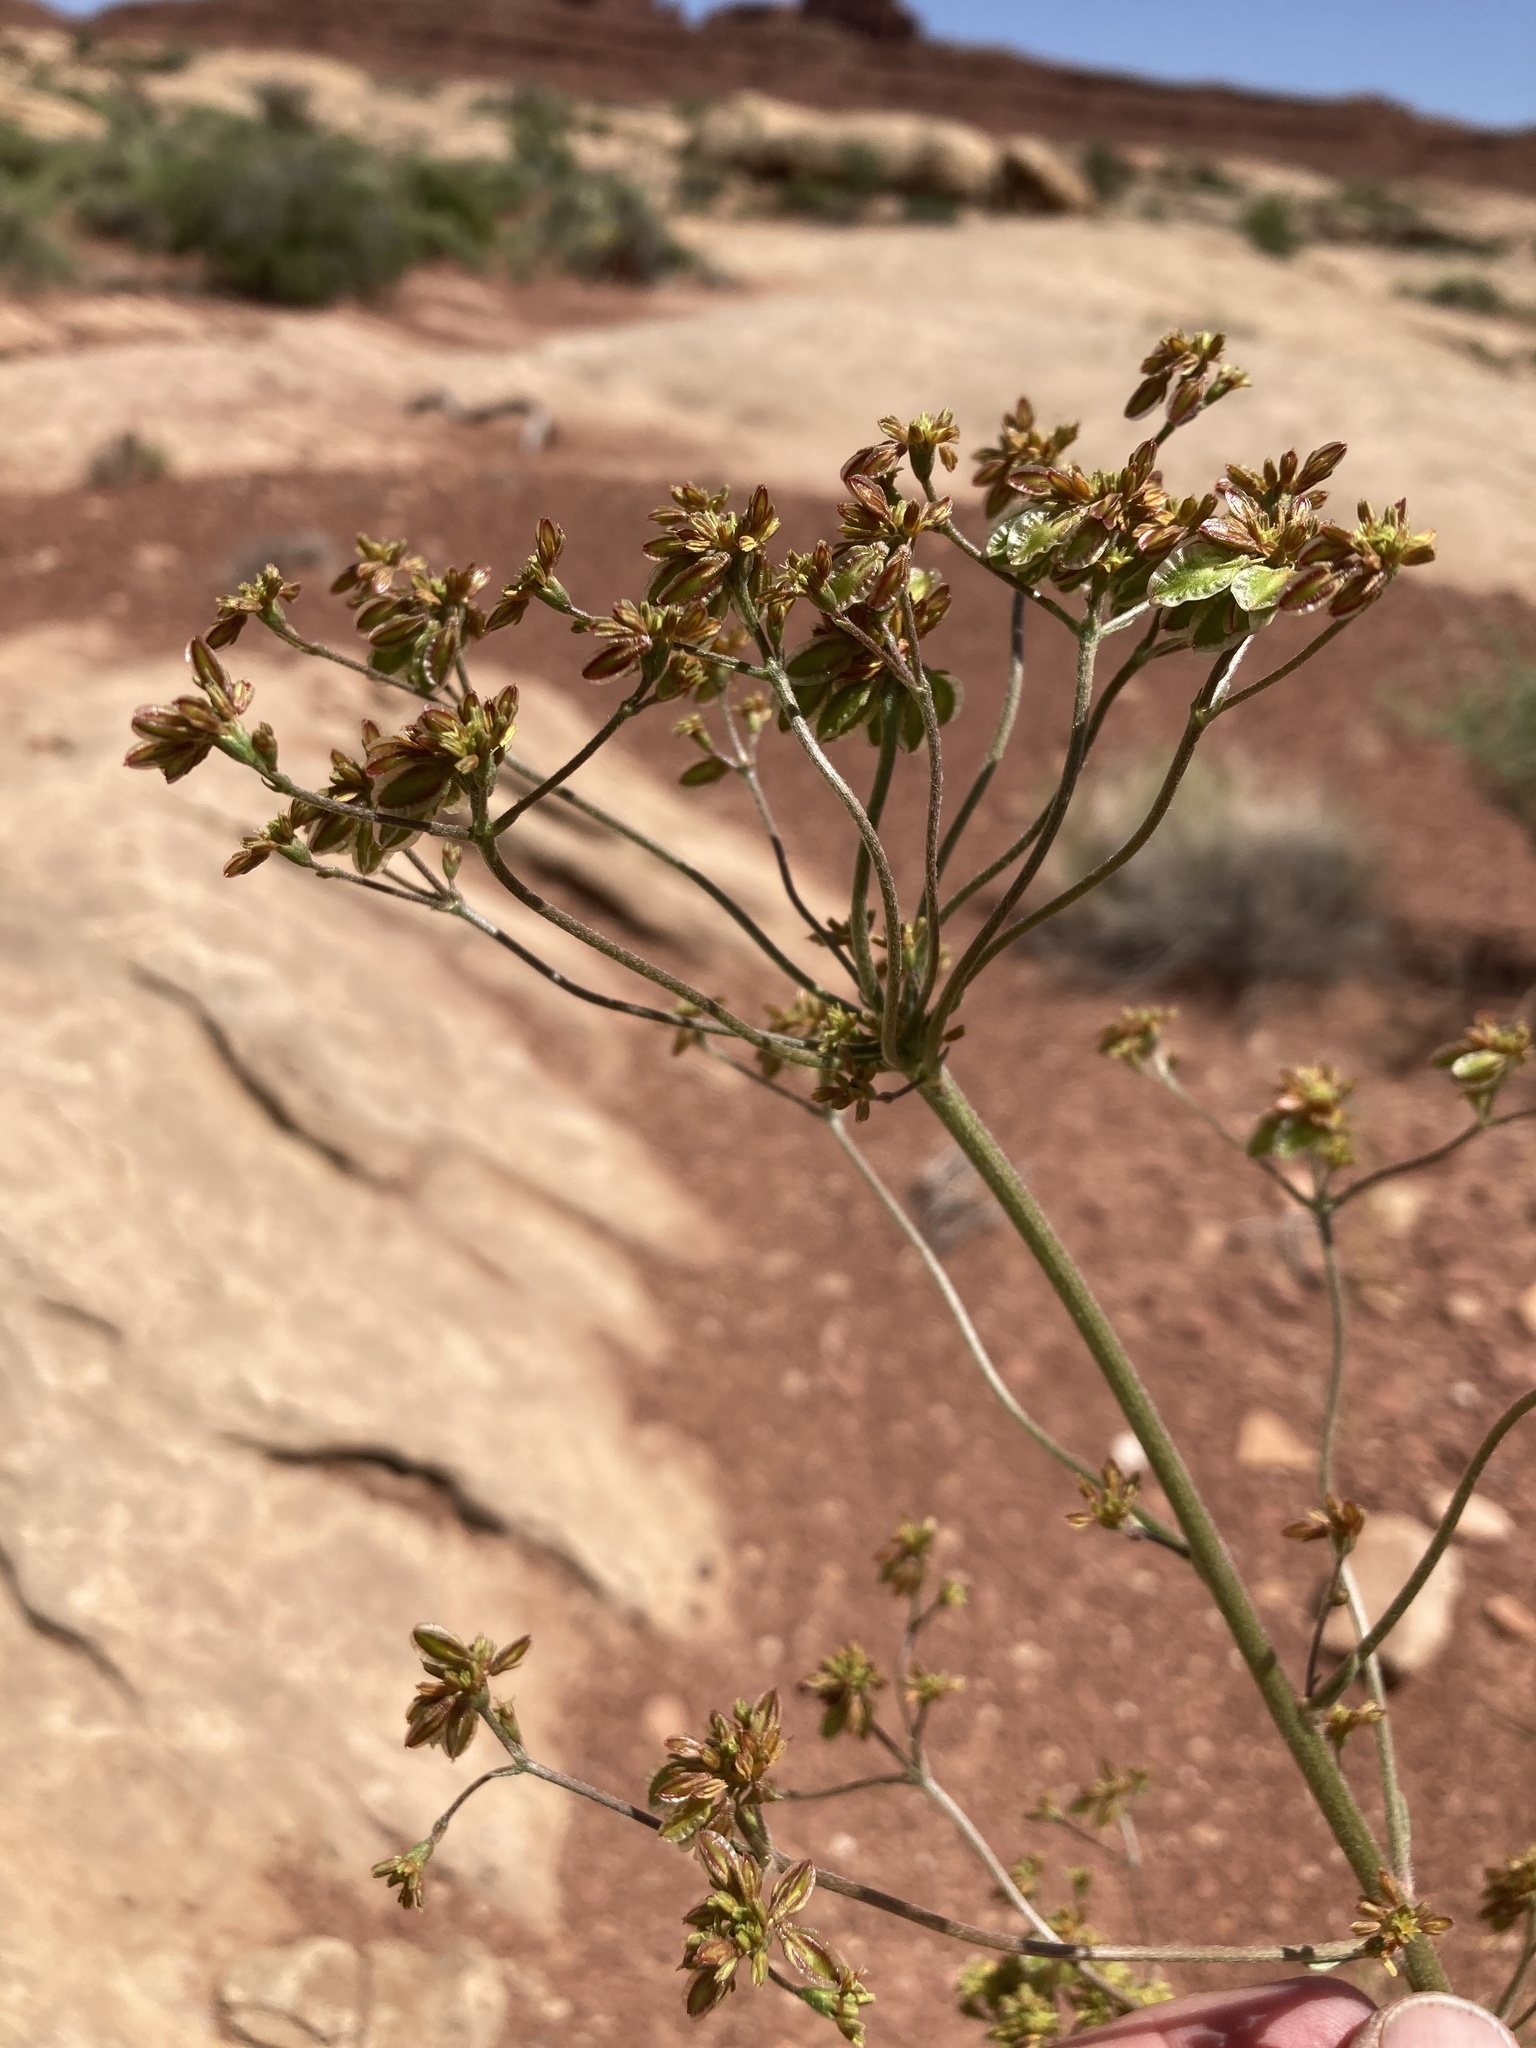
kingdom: Plantae
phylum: Tracheophyta
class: Magnoliopsida
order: Caryophyllales
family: Polygonaceae
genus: Eriogonum
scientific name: Eriogonum alatum
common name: Winged eriogonum
